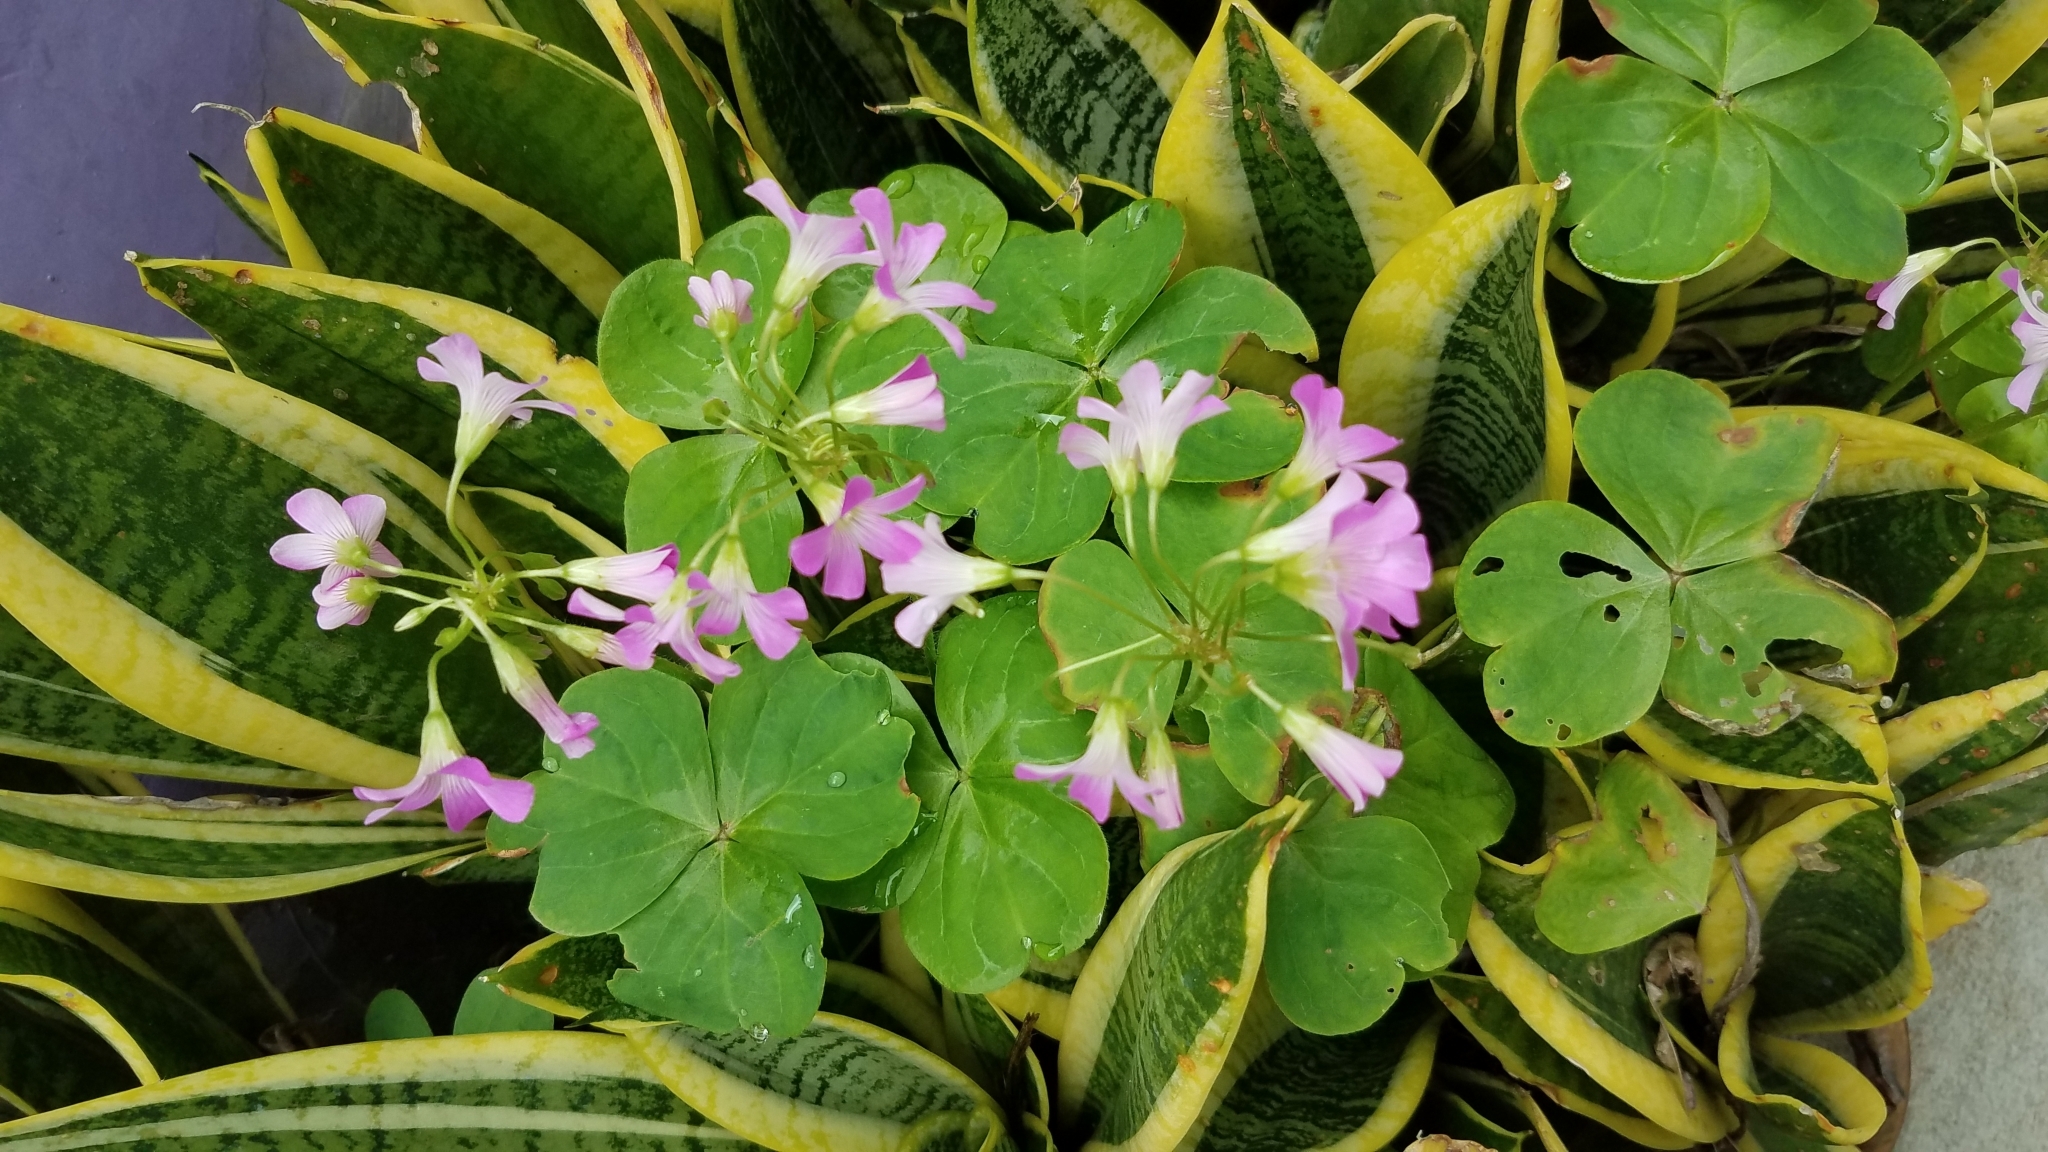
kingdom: Plantae
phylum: Tracheophyta
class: Magnoliopsida
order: Oxalidales
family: Oxalidaceae
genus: Oxalis
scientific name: Oxalis debilis
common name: Large-flowered pink-sorrel
